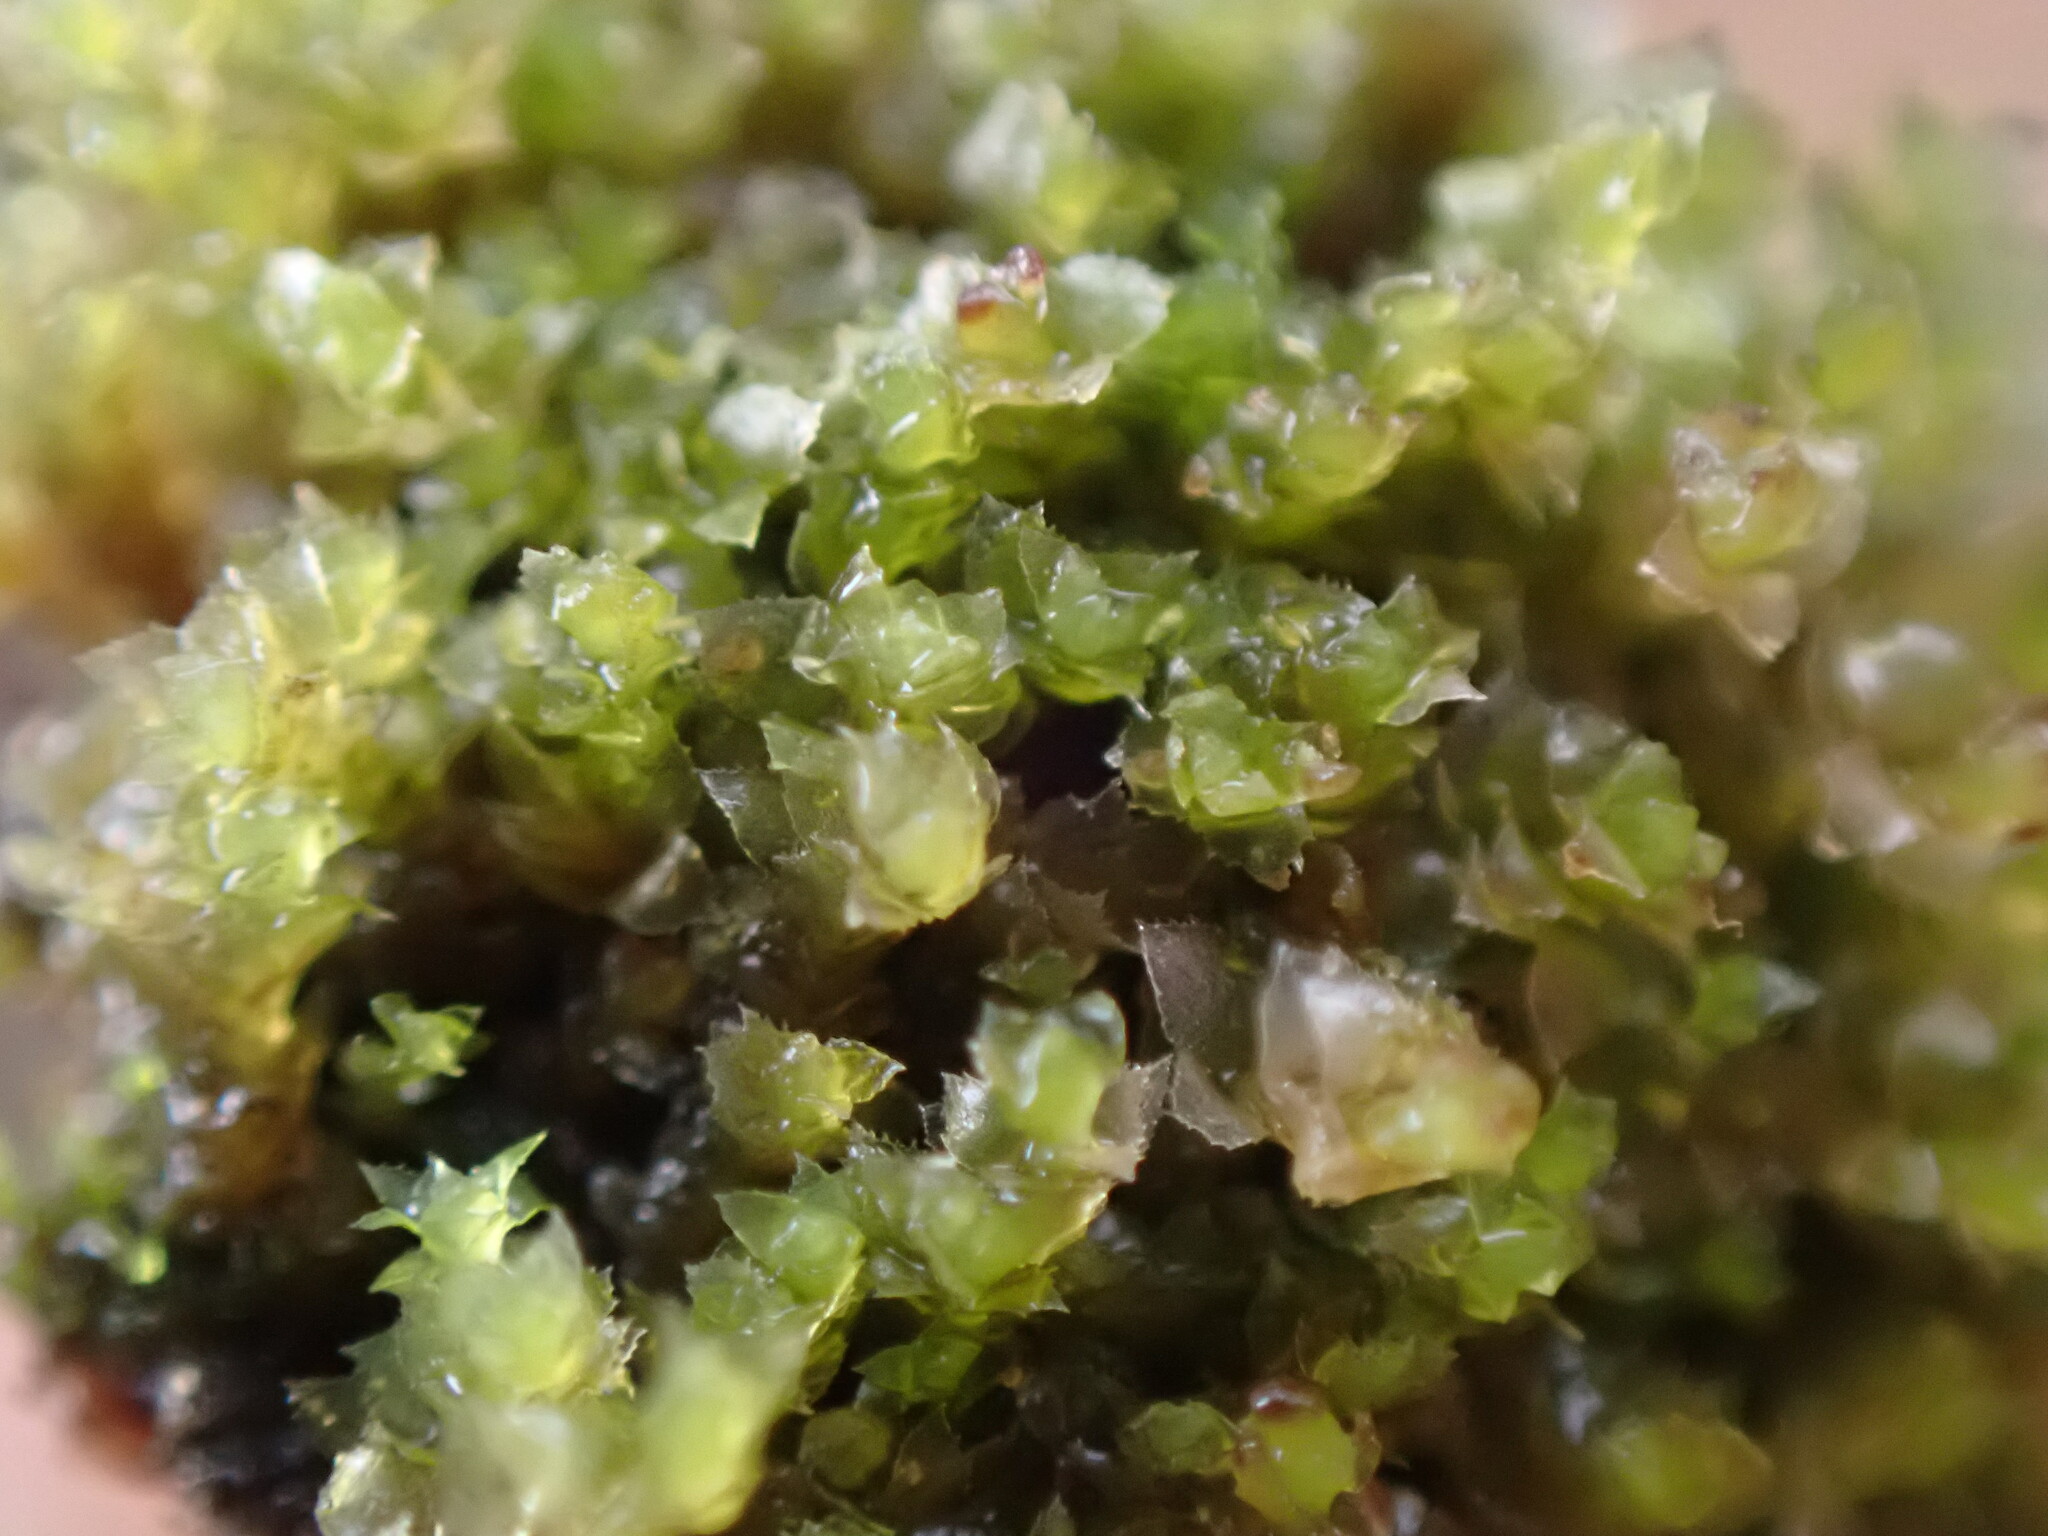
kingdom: Plantae
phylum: Marchantiophyta
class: Jungermanniopsida
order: Jungermanniales
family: Scapaniaceae
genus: Scapania
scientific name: Scapania umbrosa
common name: Shady earwort
